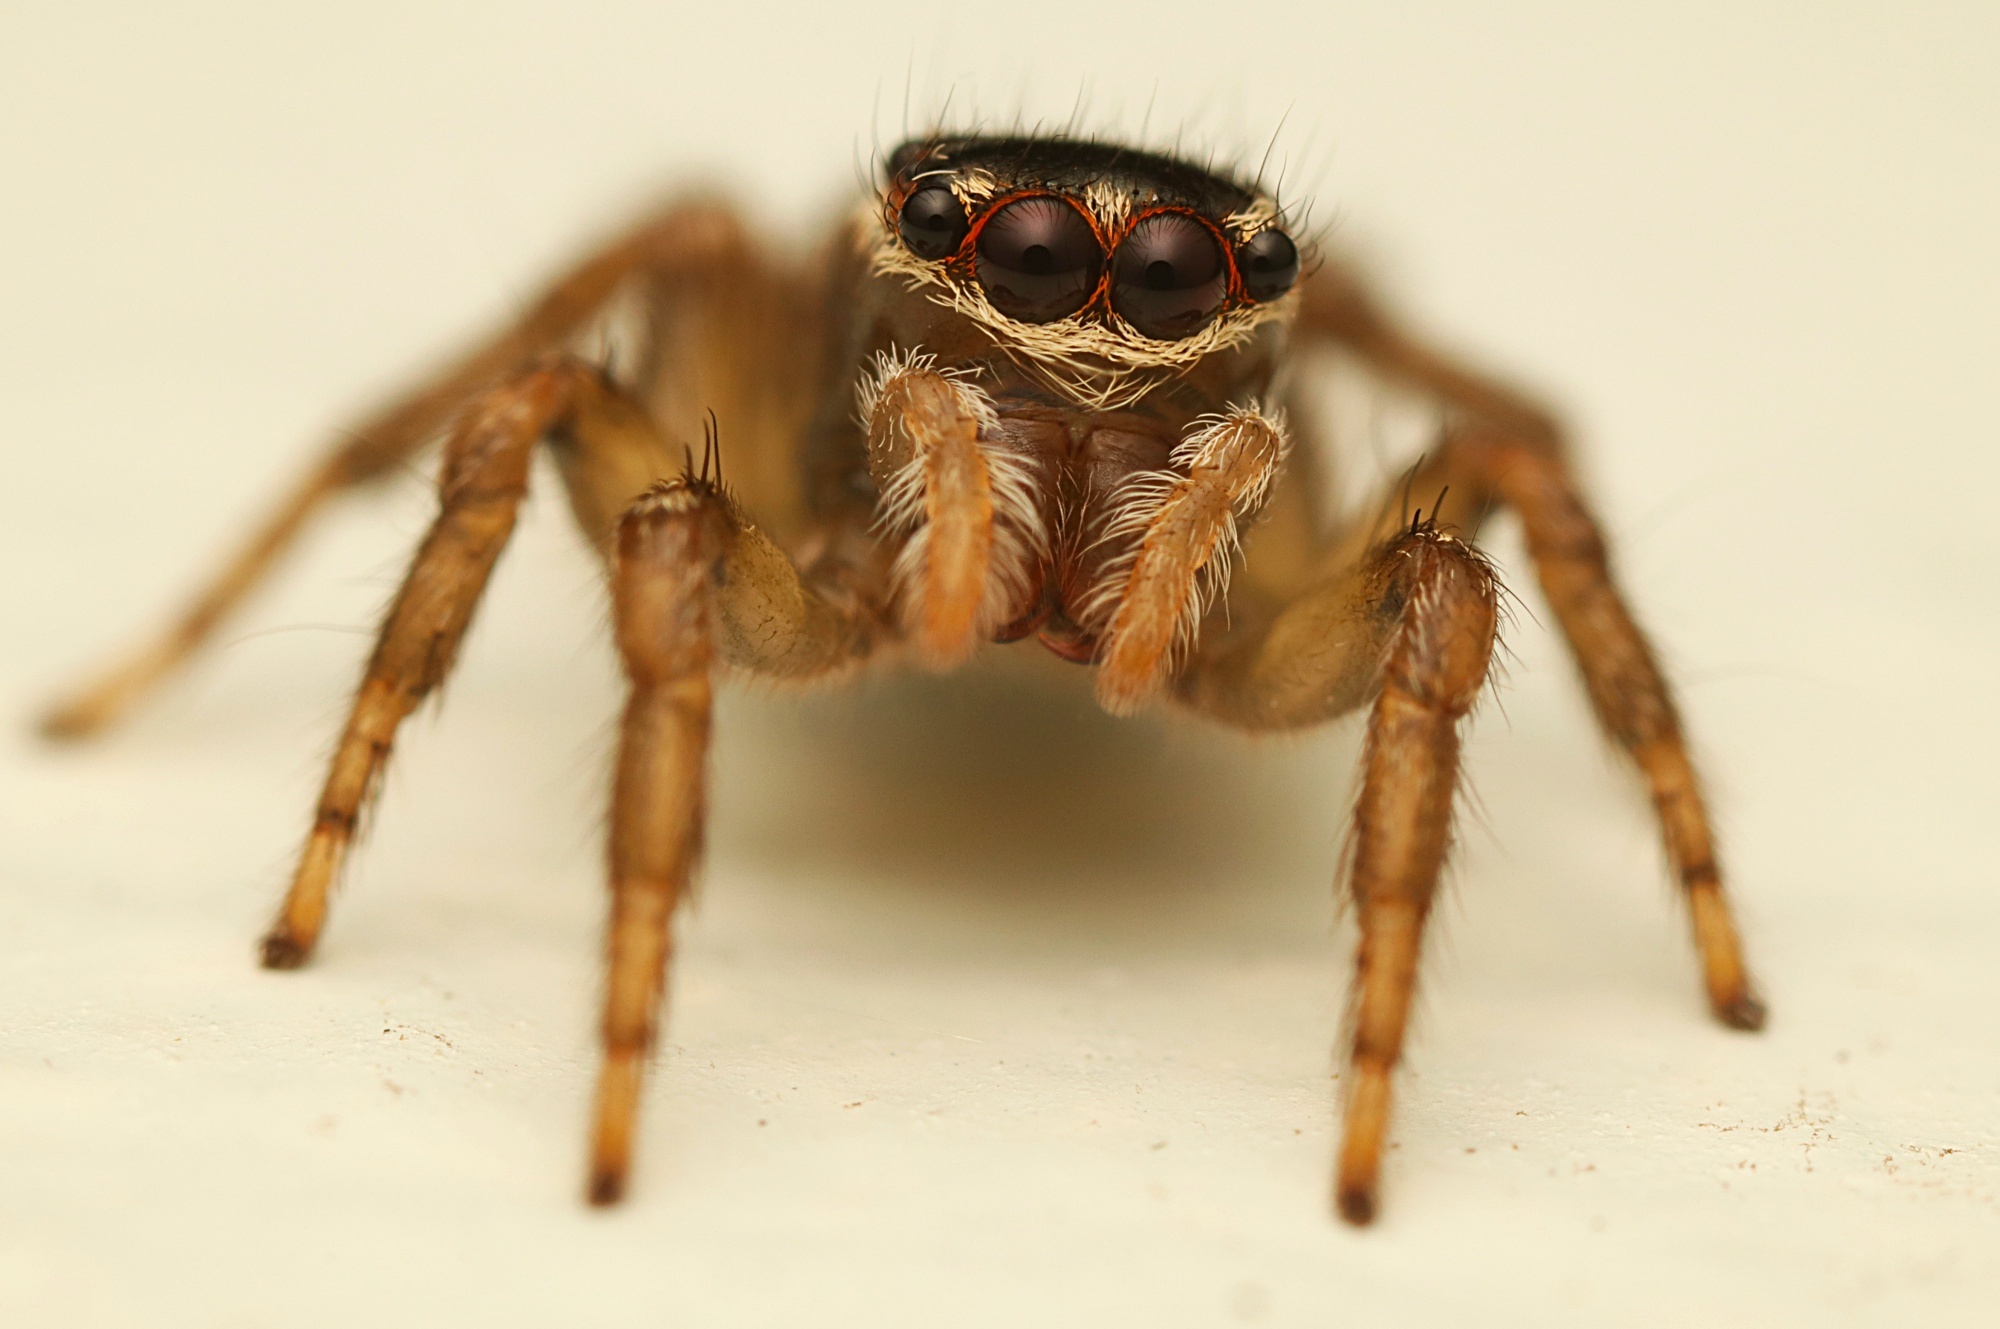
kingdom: Animalia
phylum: Arthropoda
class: Arachnida
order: Araneae
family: Salticidae
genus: Maratus
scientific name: Maratus griseus
